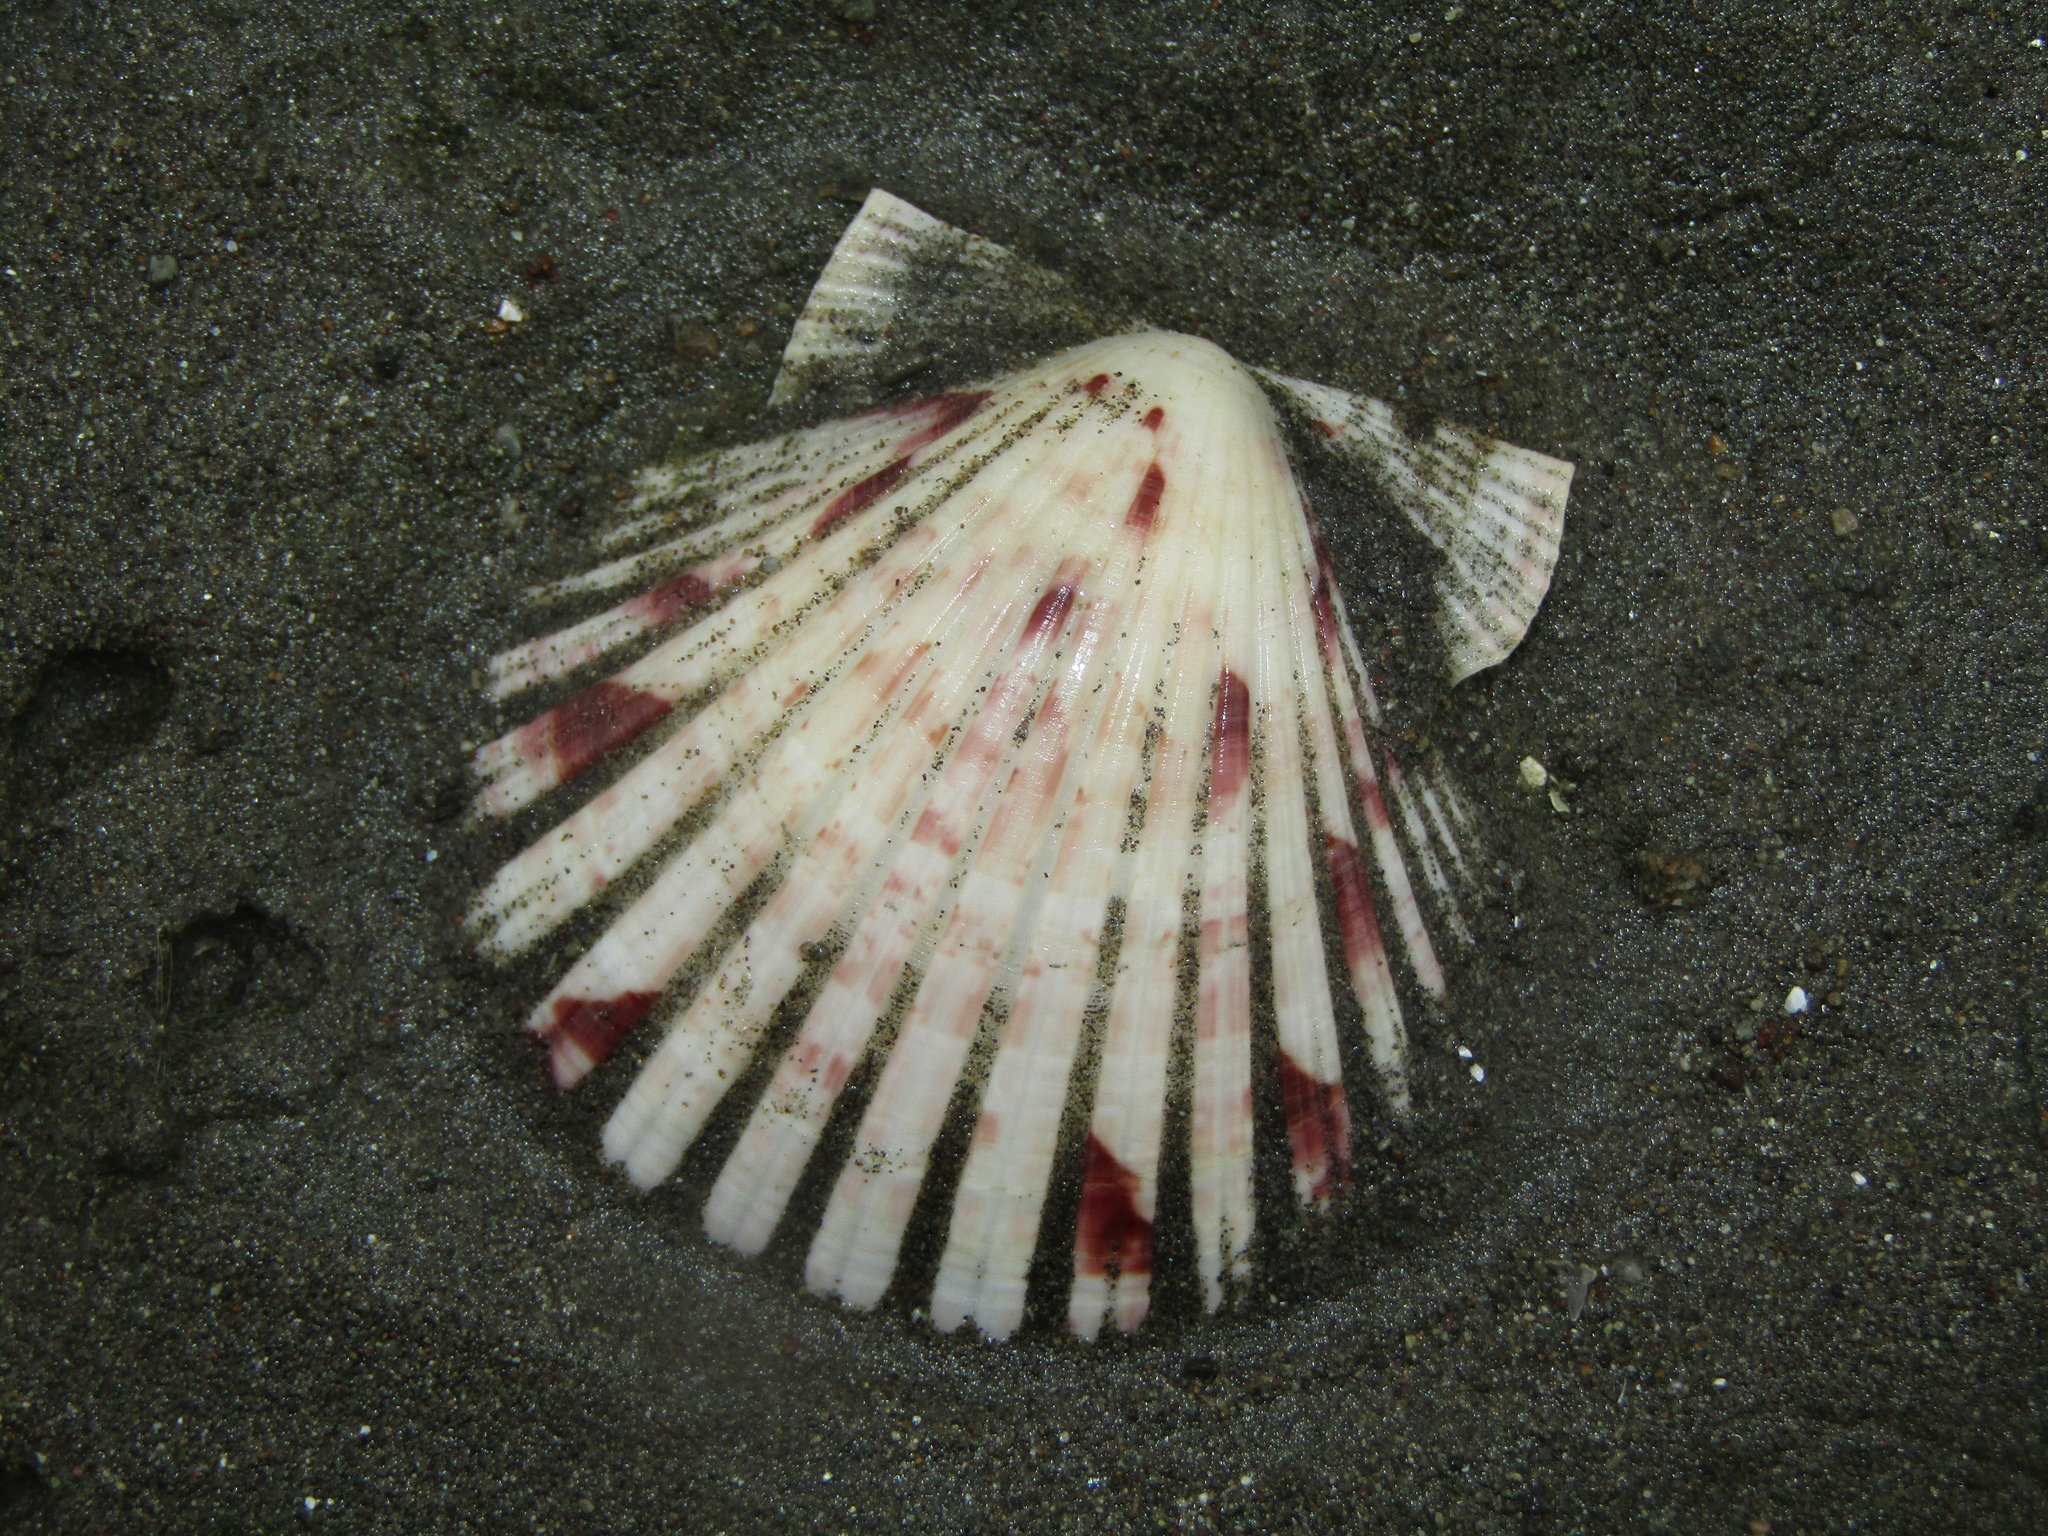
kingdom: Animalia
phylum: Mollusca
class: Bivalvia
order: Pectinida
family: Pectinidae
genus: Pecten
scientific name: Pecten novaezelandiae
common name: New zealand scallop
